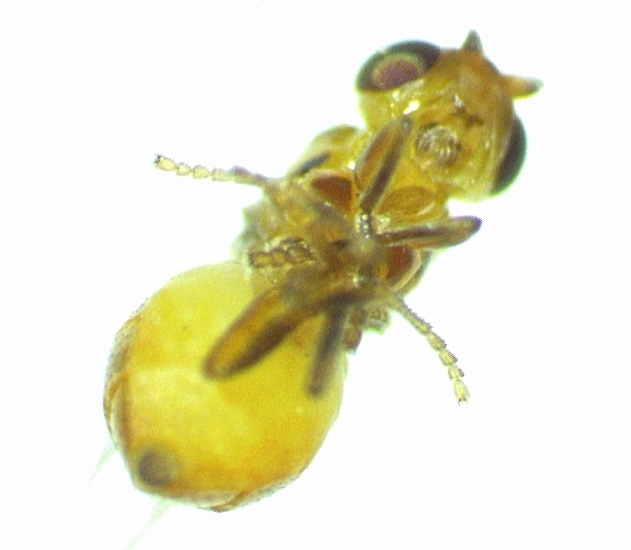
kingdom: Animalia
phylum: Arthropoda
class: Insecta
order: Diptera
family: Chloropidae
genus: Thaumatomyia
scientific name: Thaumatomyia pulla
